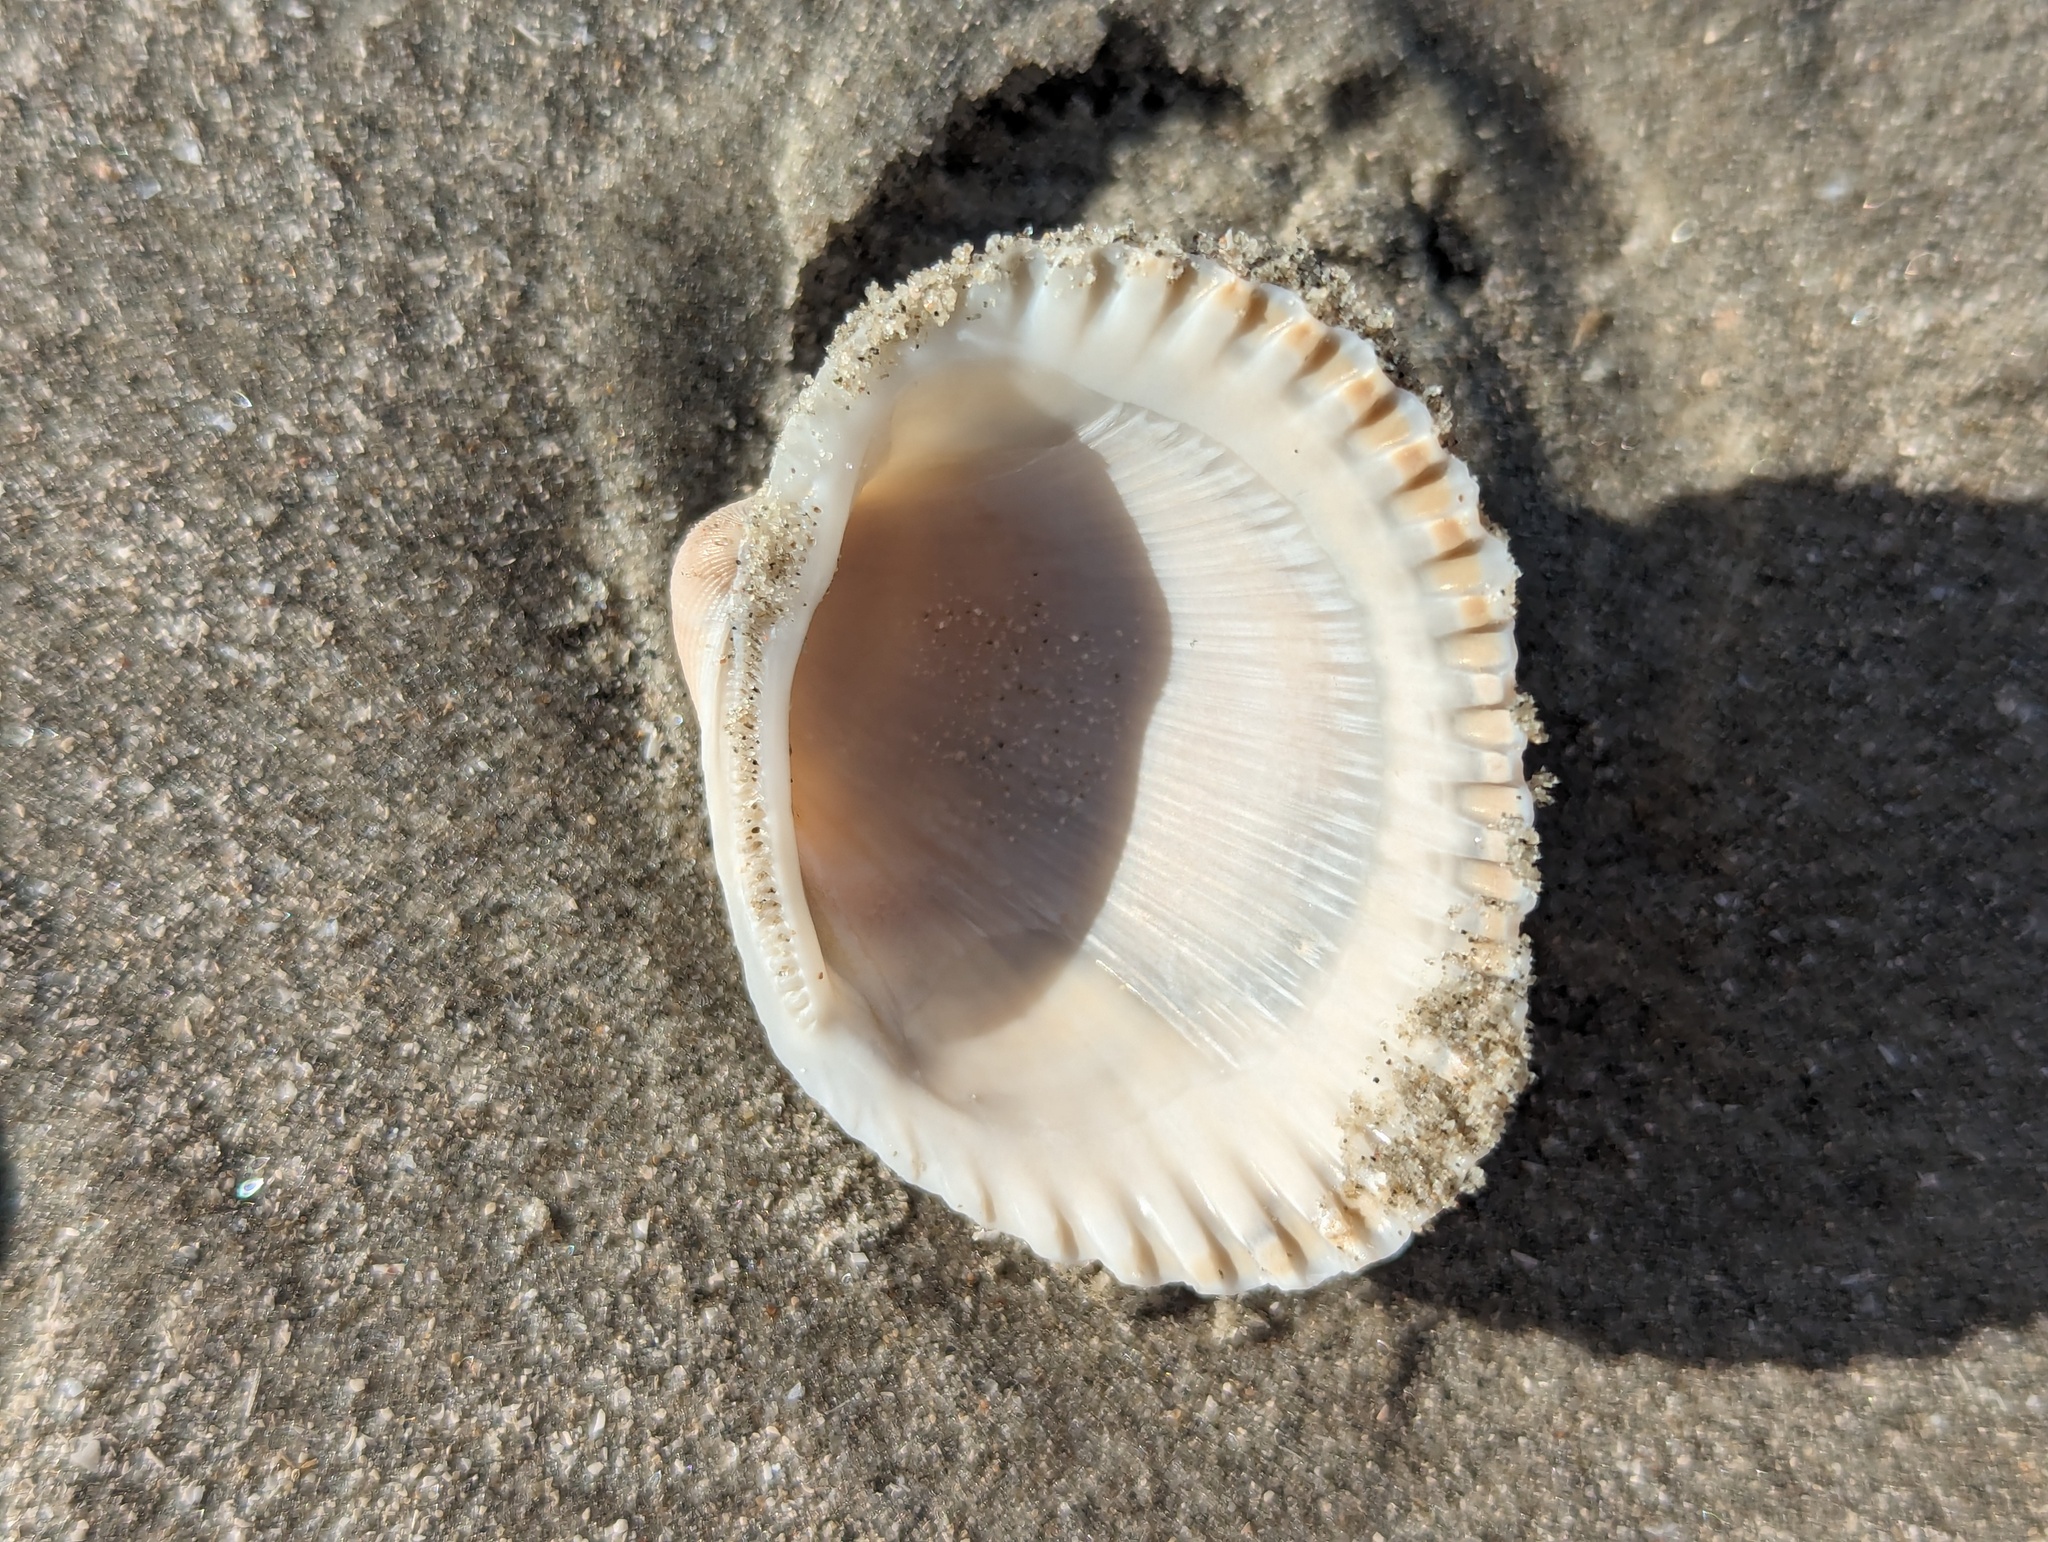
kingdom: Animalia
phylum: Mollusca
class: Bivalvia
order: Arcida
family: Arcidae
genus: Lunarca
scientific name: Lunarca ovalis
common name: Blood ark
